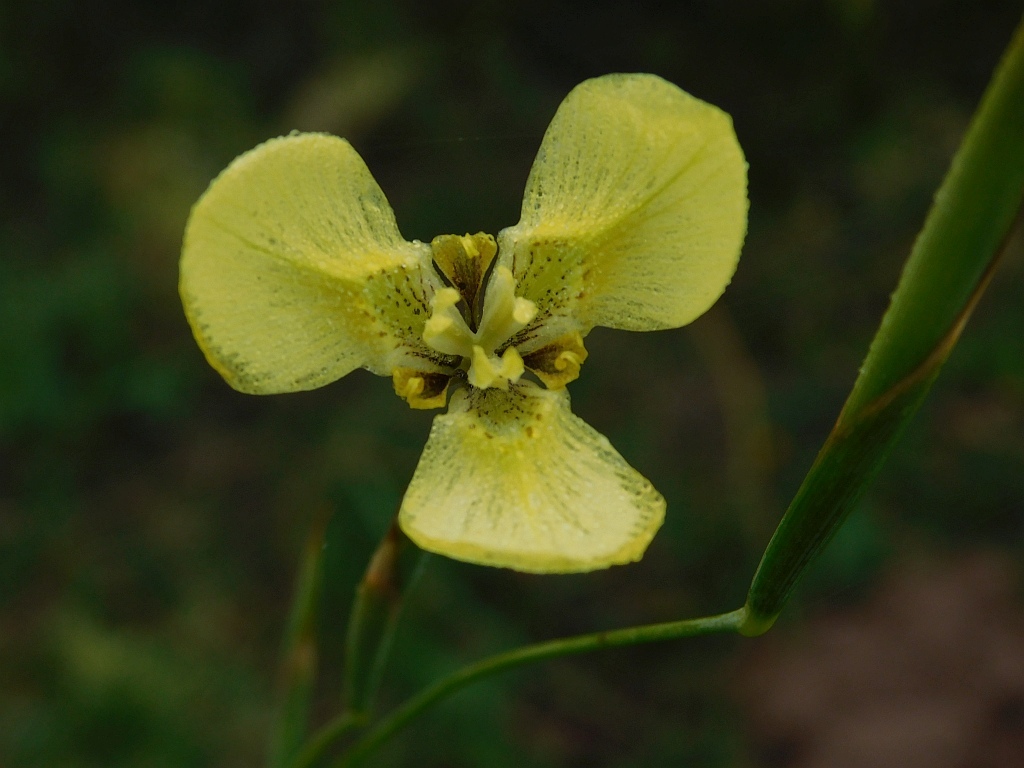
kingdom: Plantae
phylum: Tracheophyta
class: Liliopsida
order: Asparagales
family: Iridaceae
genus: Moraea
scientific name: Moraea bellendenii
